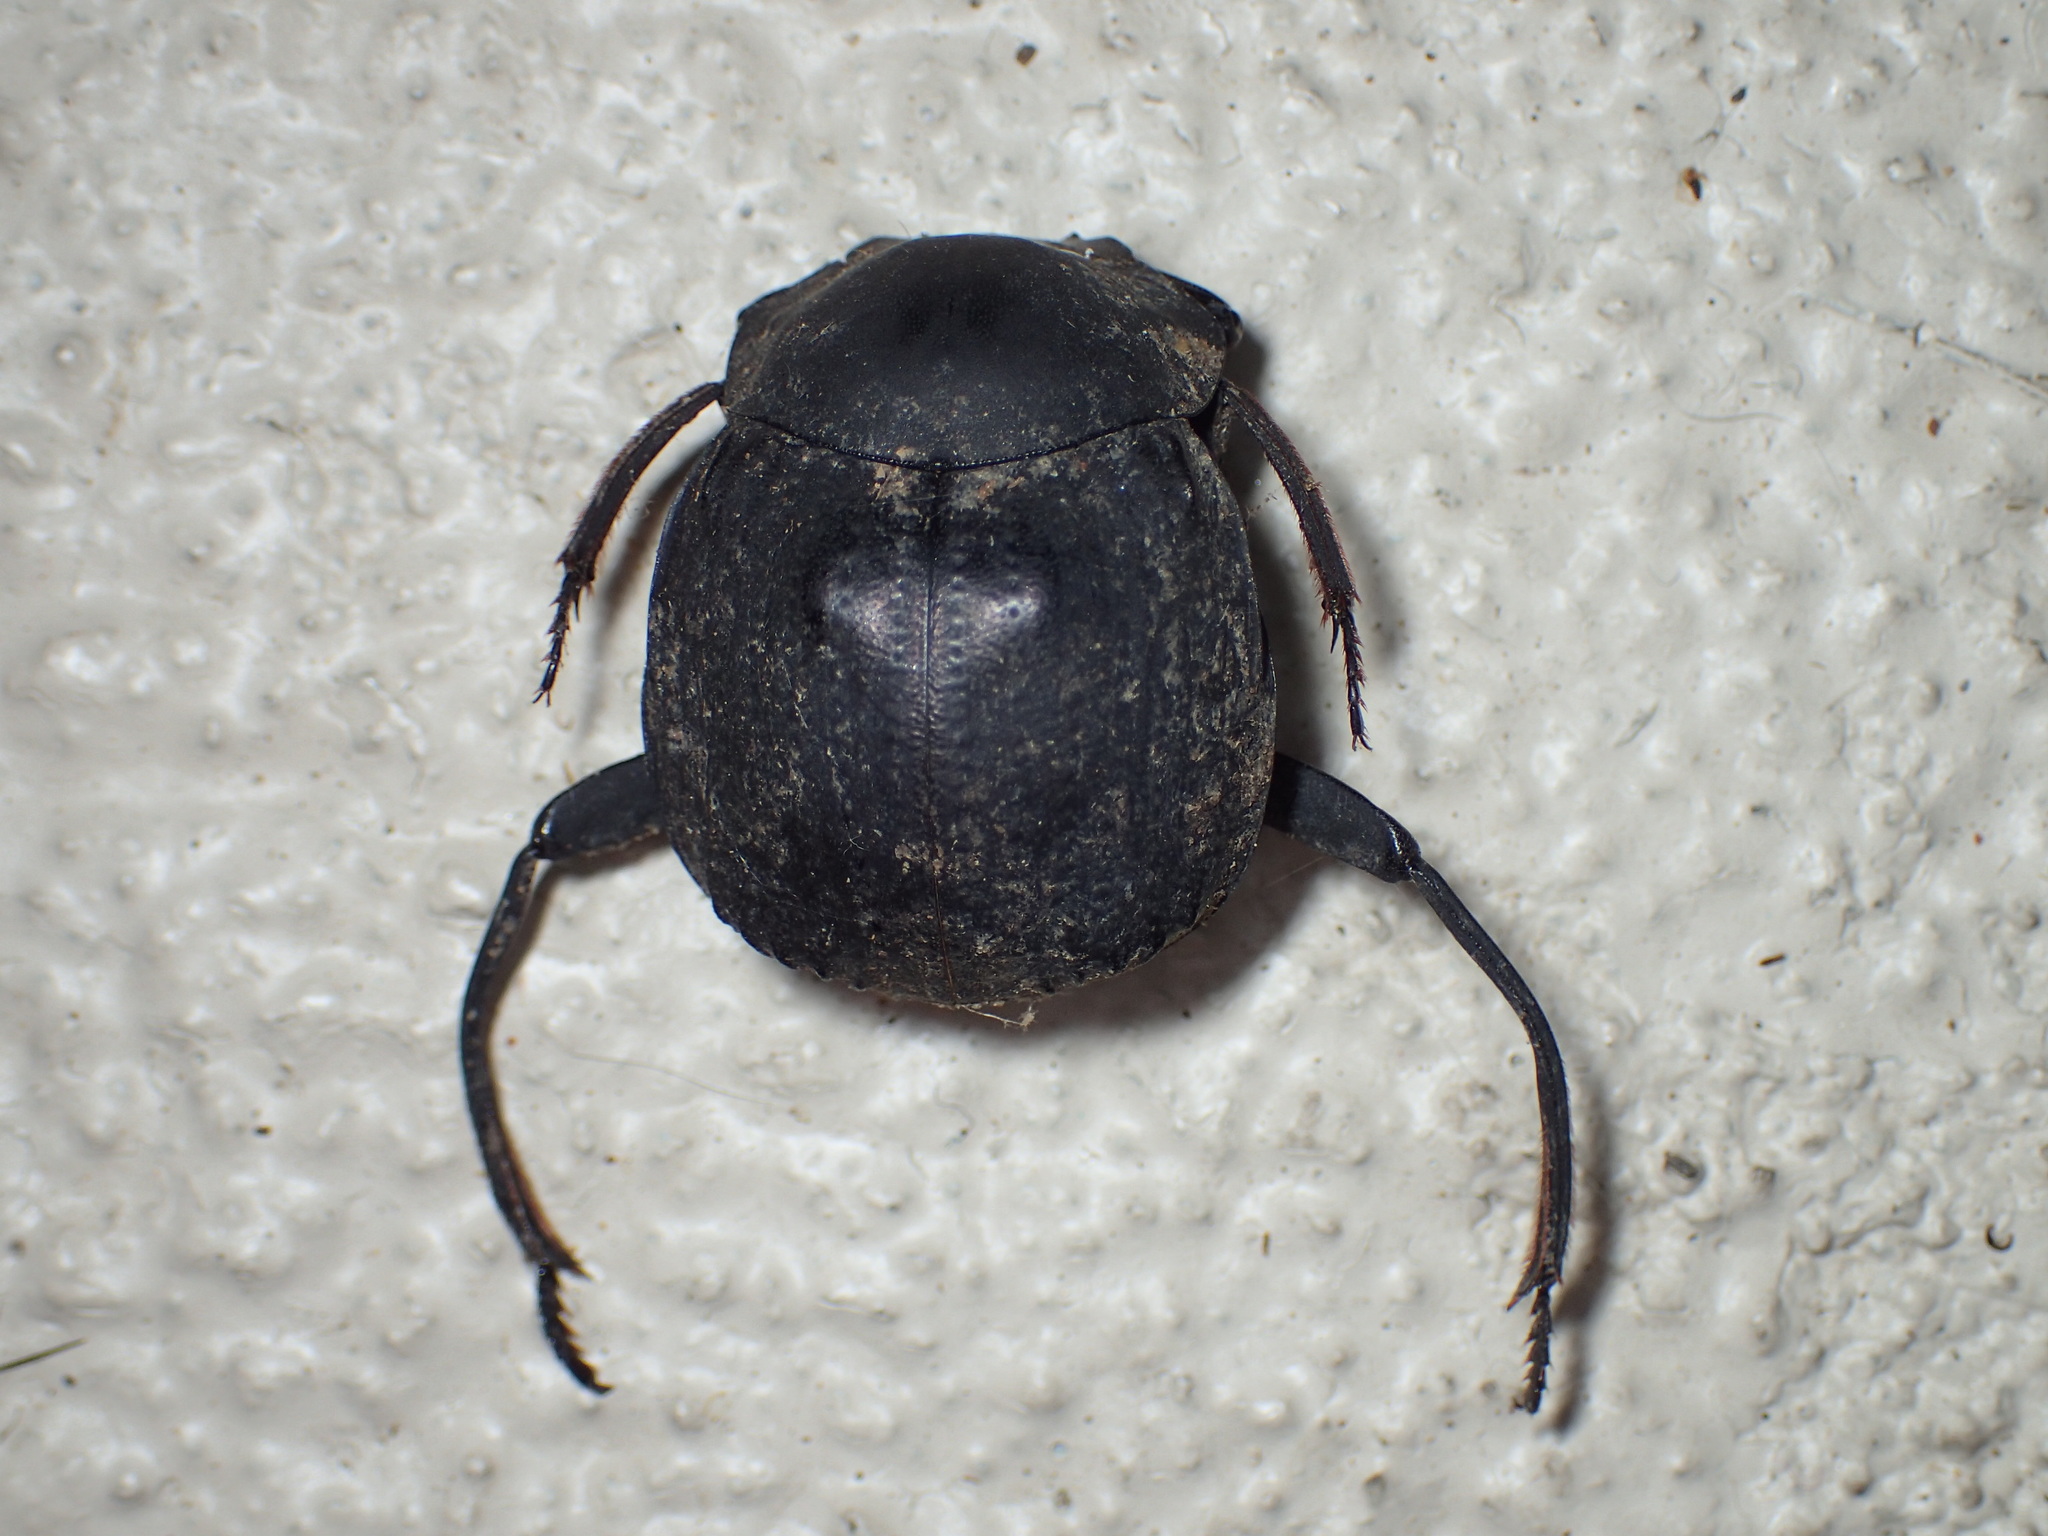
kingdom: Animalia
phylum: Arthropoda
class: Insecta
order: Coleoptera
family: Scarabaeidae
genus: Deltochilum
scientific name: Deltochilum gibbosum
